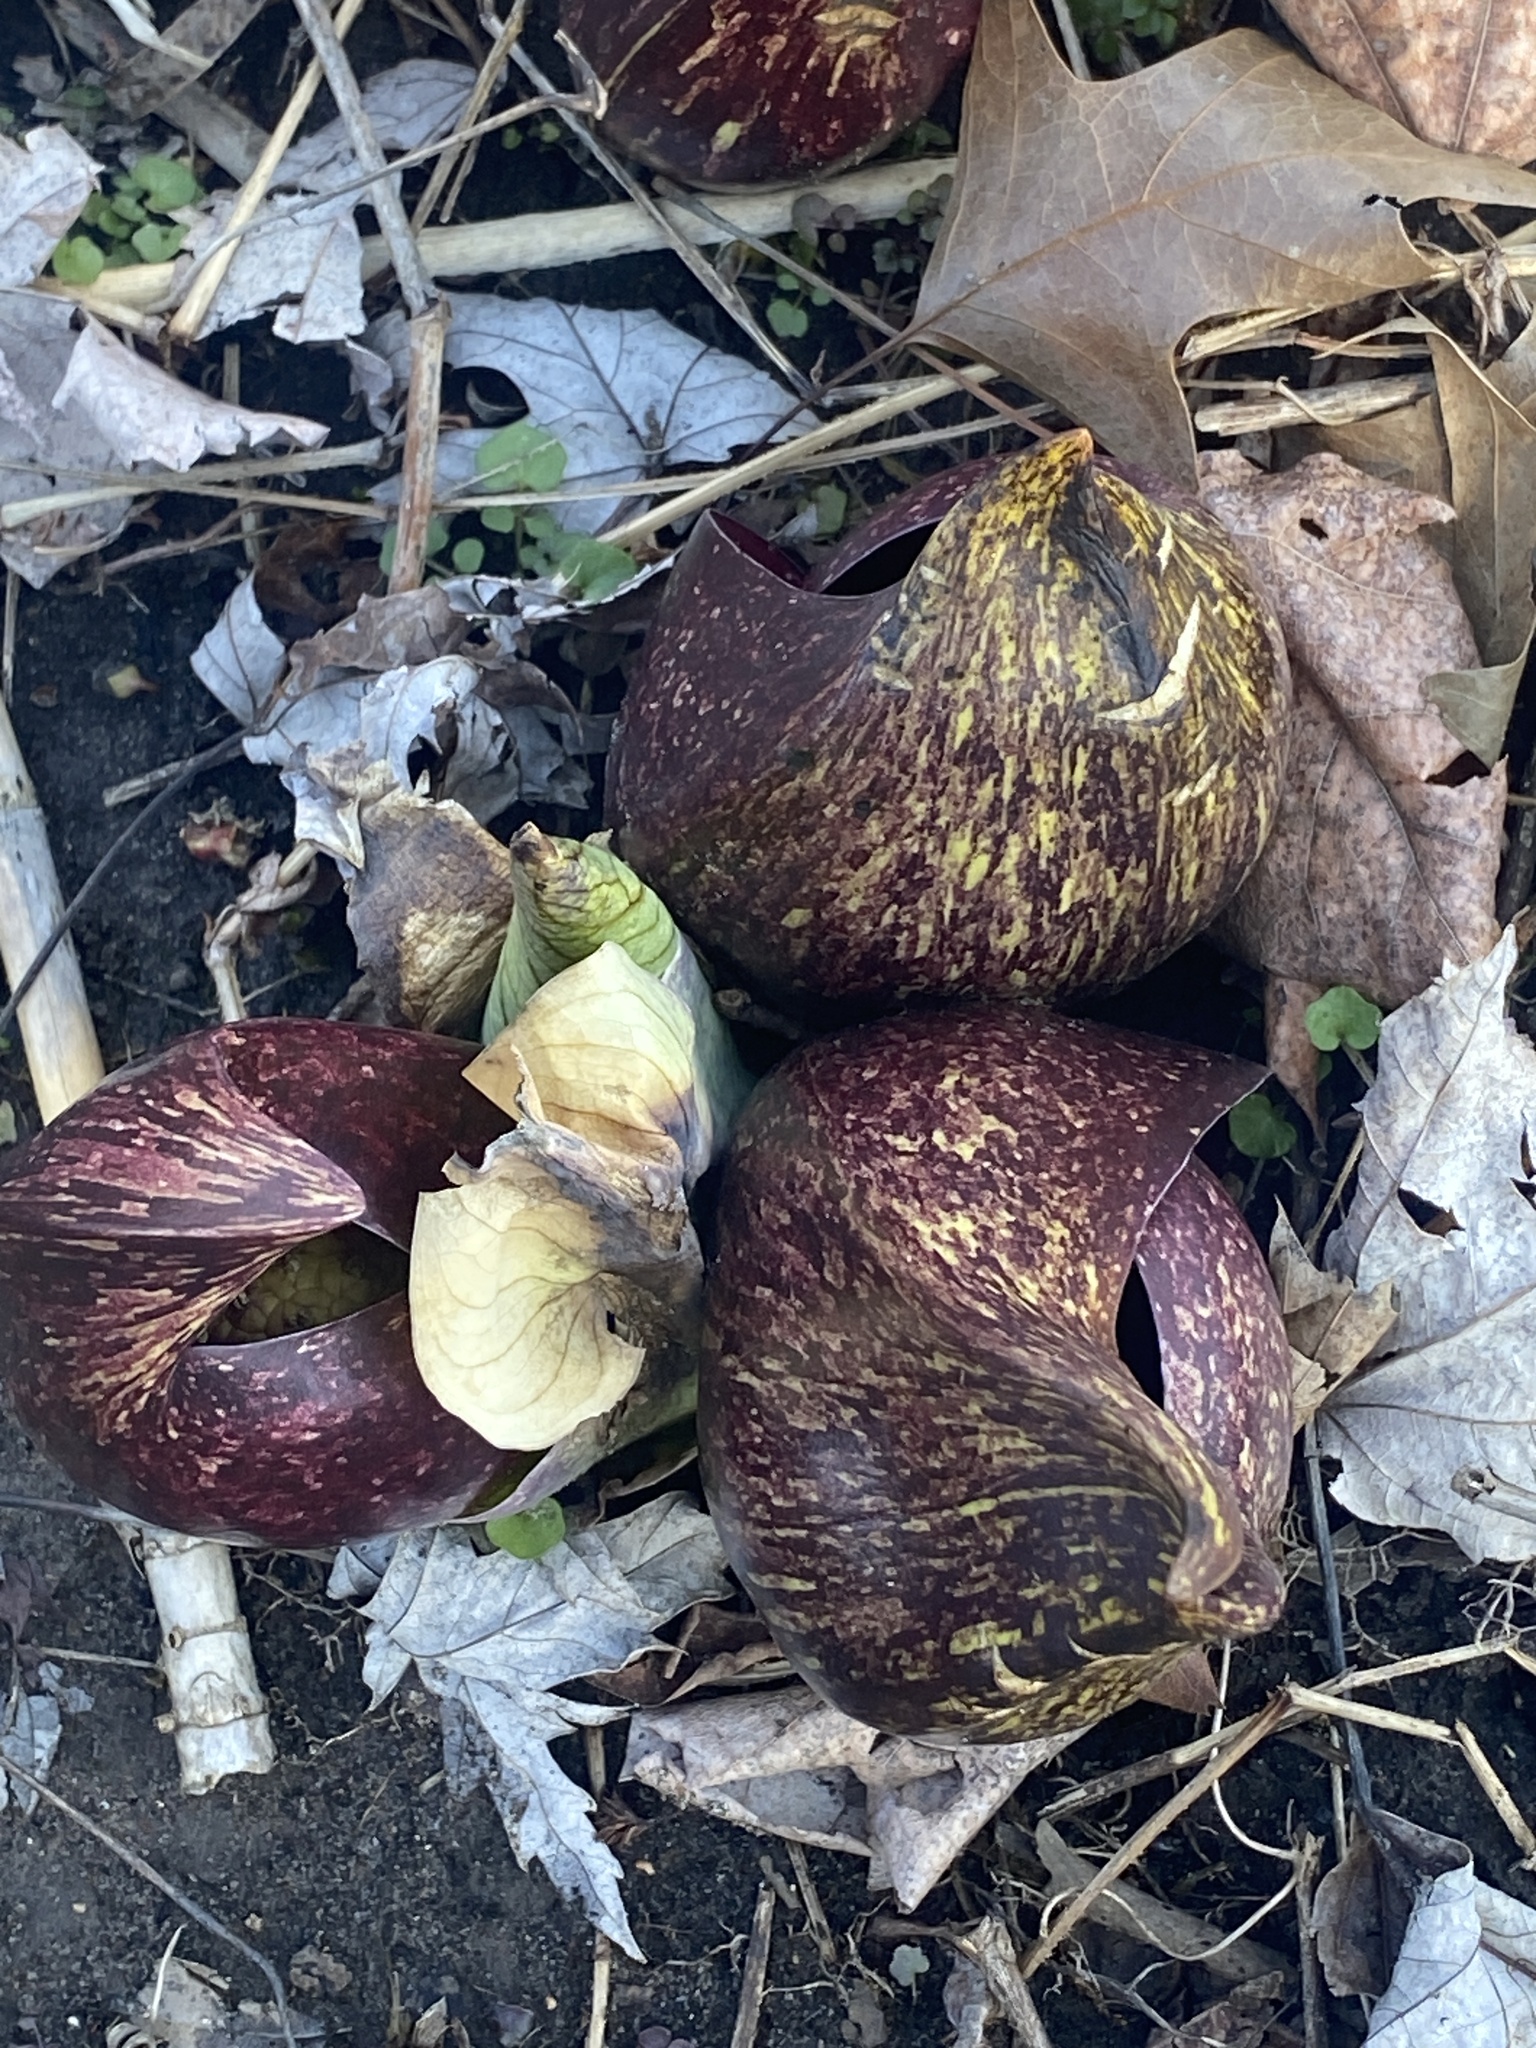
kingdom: Plantae
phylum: Tracheophyta
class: Liliopsida
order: Alismatales
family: Araceae
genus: Symplocarpus
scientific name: Symplocarpus foetidus
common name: Eastern skunk cabbage
